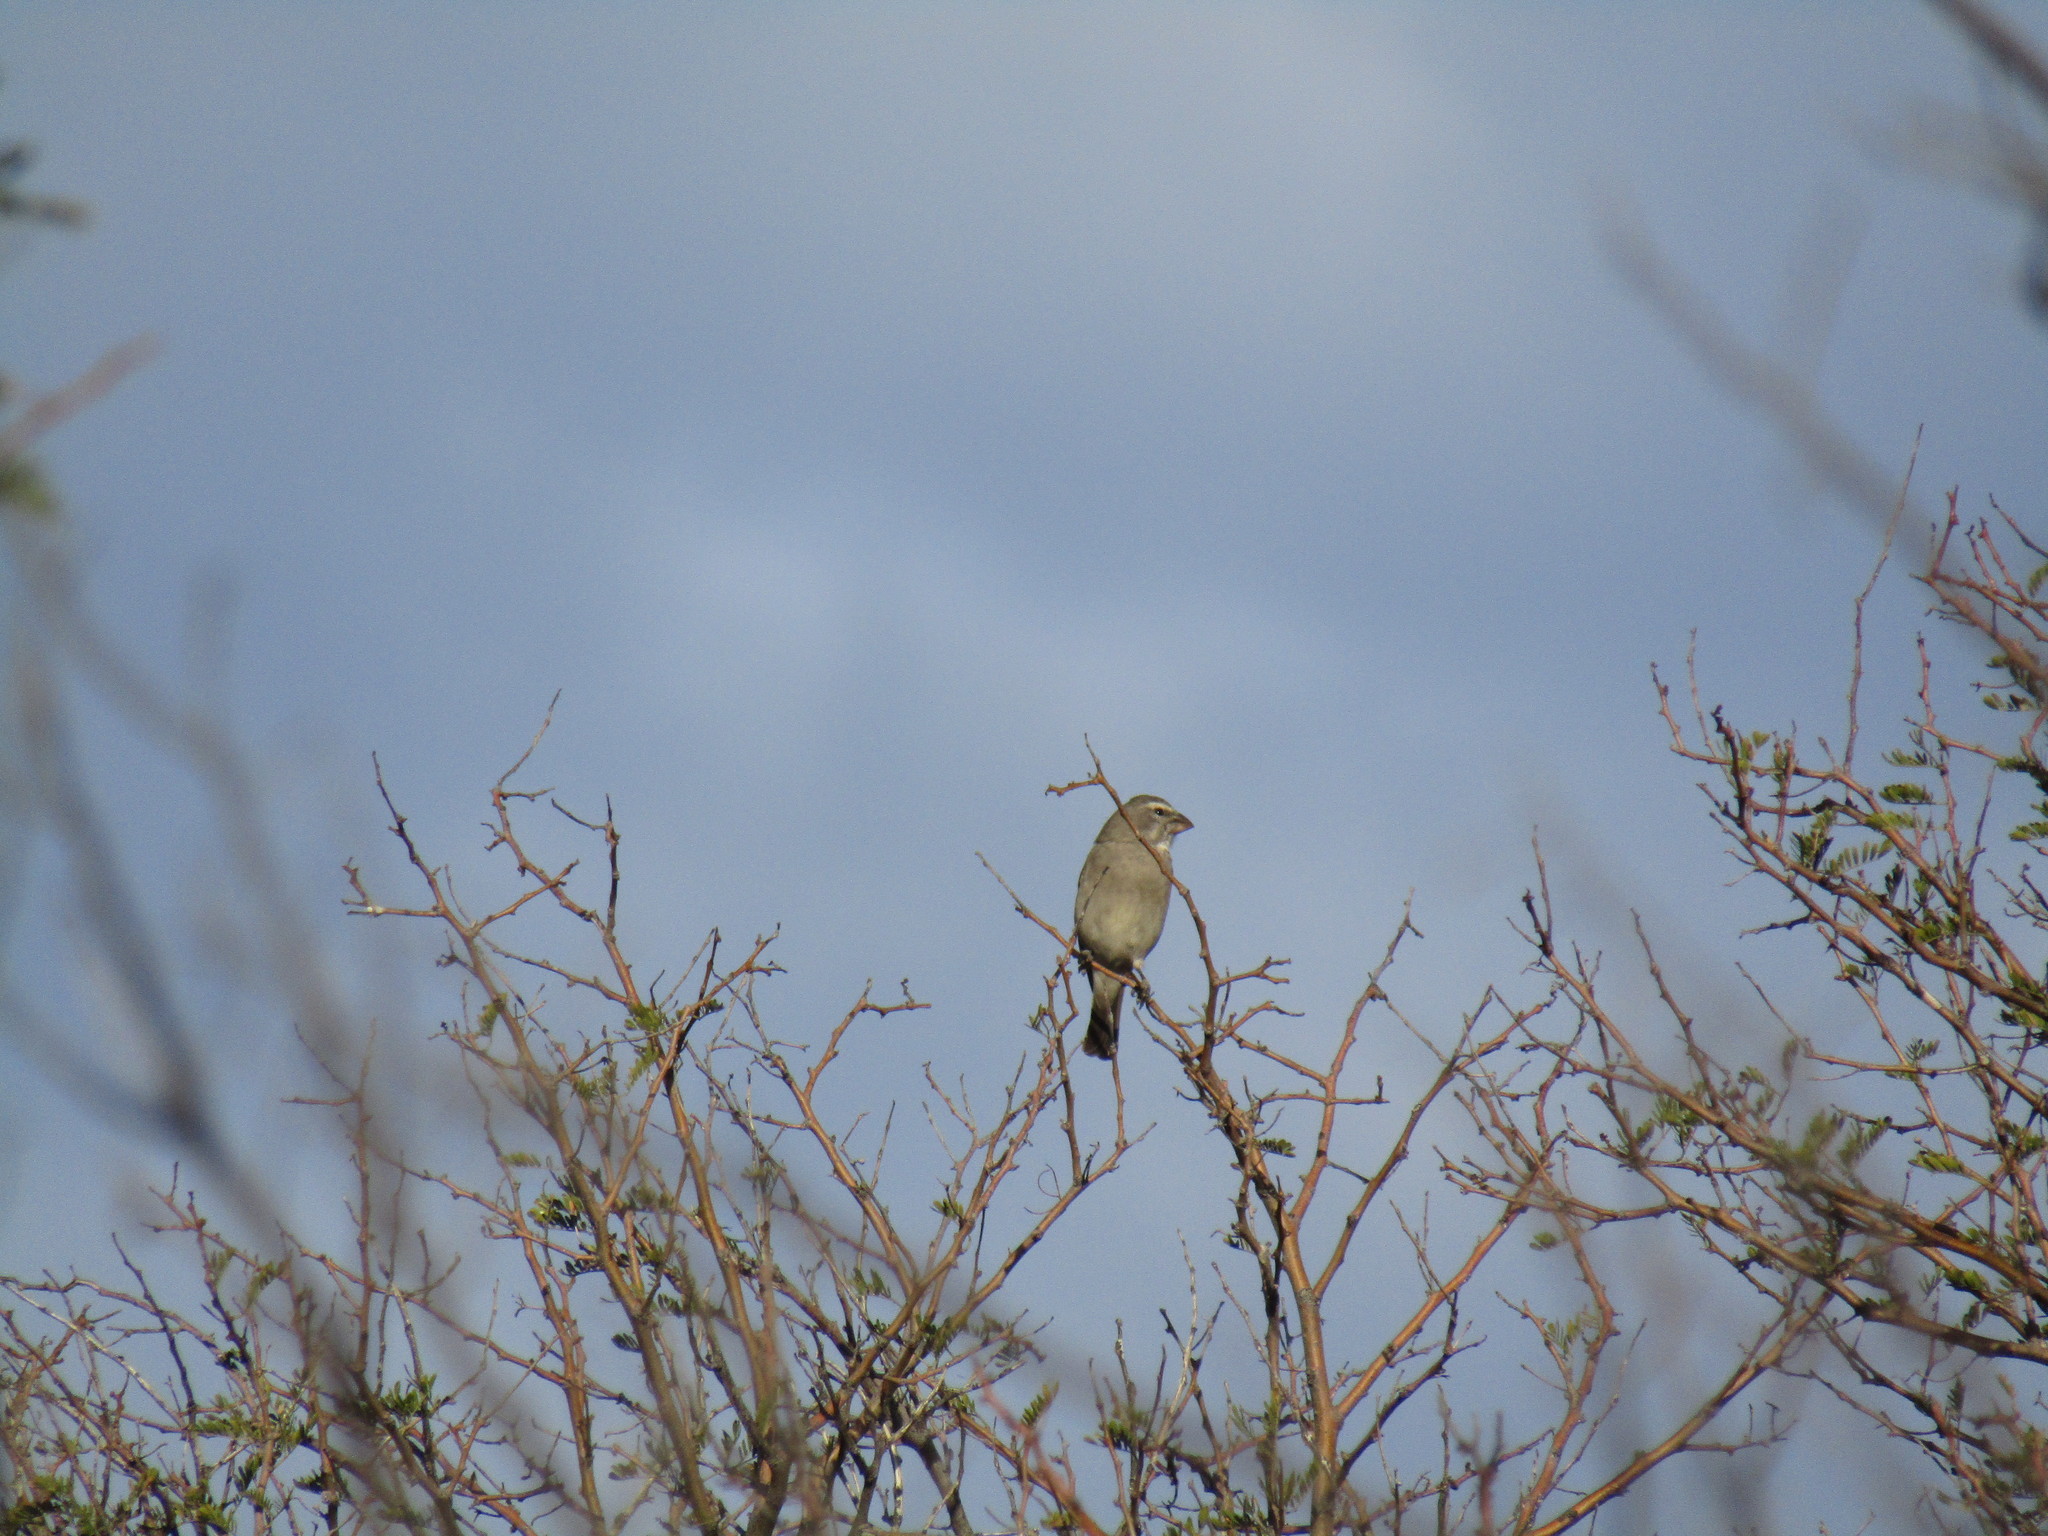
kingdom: Animalia
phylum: Chordata
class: Aves
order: Passeriformes
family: Fringillidae
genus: Crithagra
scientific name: Crithagra albogularis
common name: White-throated canary
